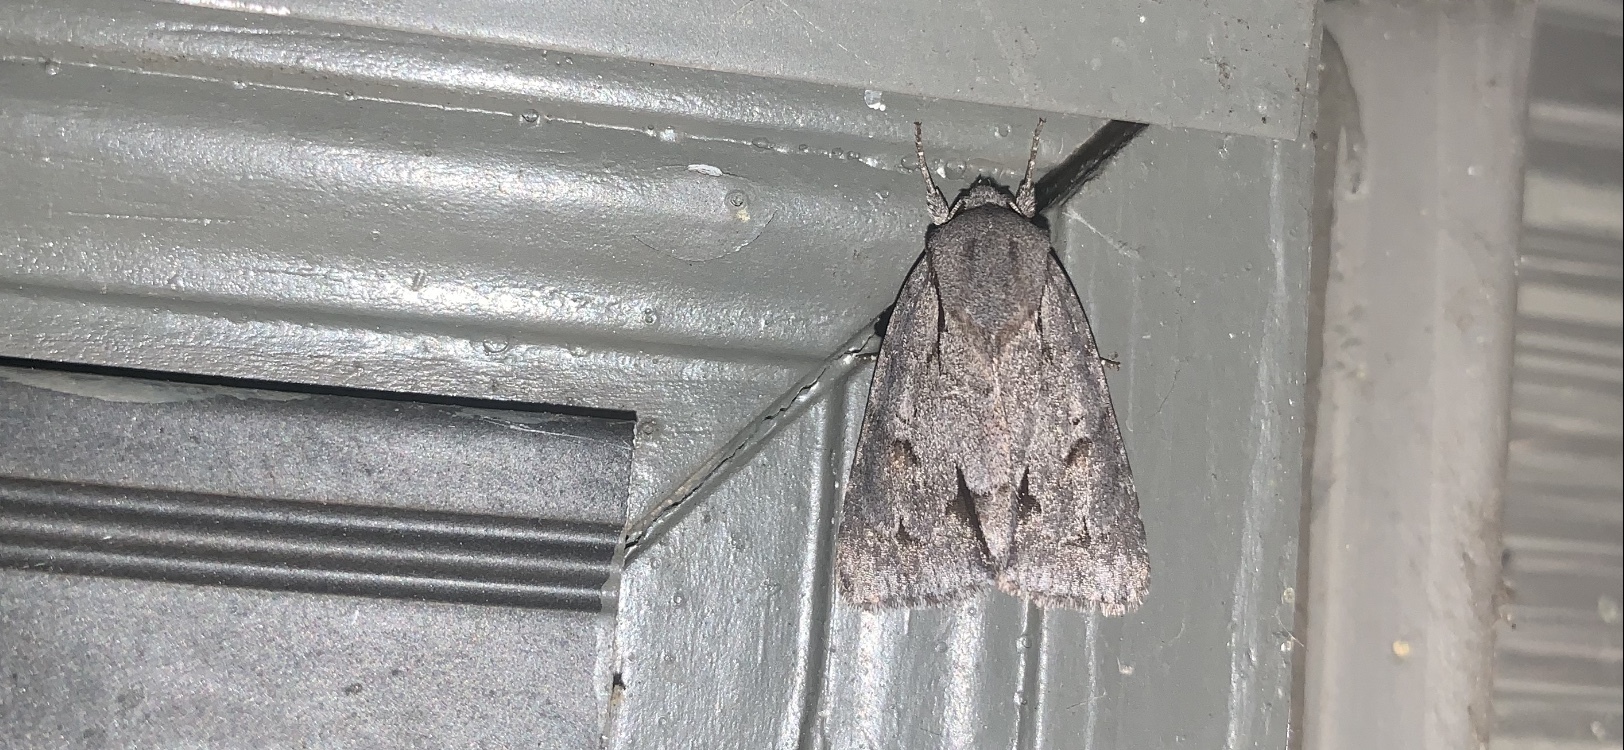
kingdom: Animalia
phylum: Arthropoda
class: Insecta
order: Lepidoptera
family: Noctuidae
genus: Acronicta
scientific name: Acronicta tritona
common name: Triton dagger
